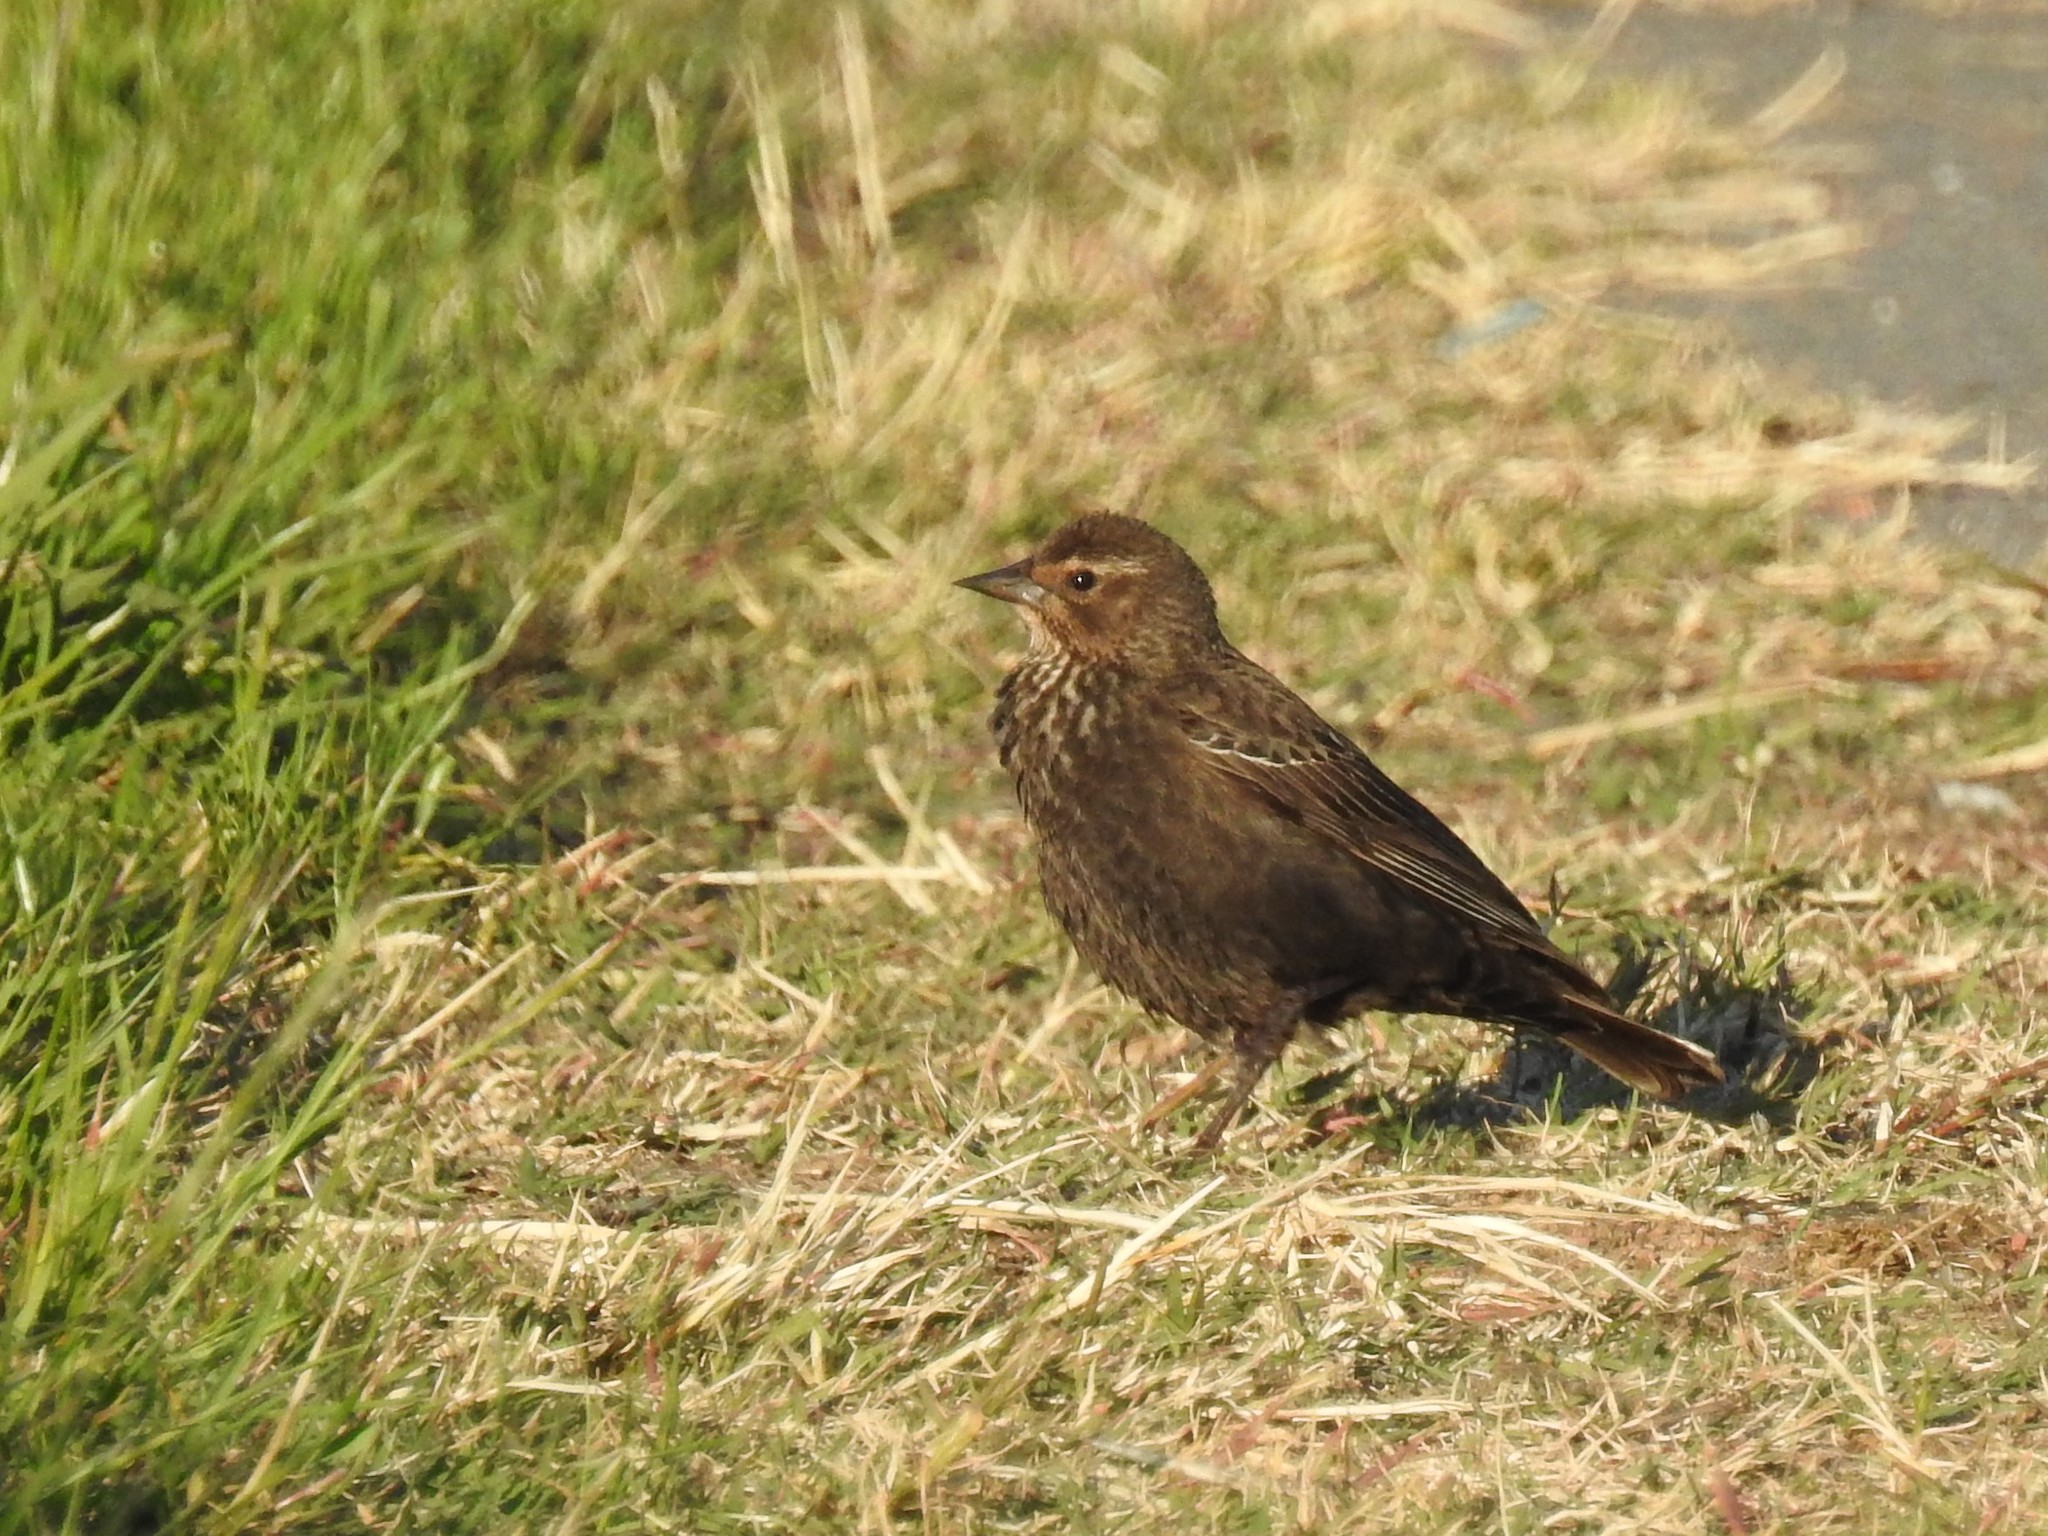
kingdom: Animalia
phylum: Chordata
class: Aves
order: Passeriformes
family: Icteridae
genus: Agelaius
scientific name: Agelaius phoeniceus
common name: Red-winged blackbird
